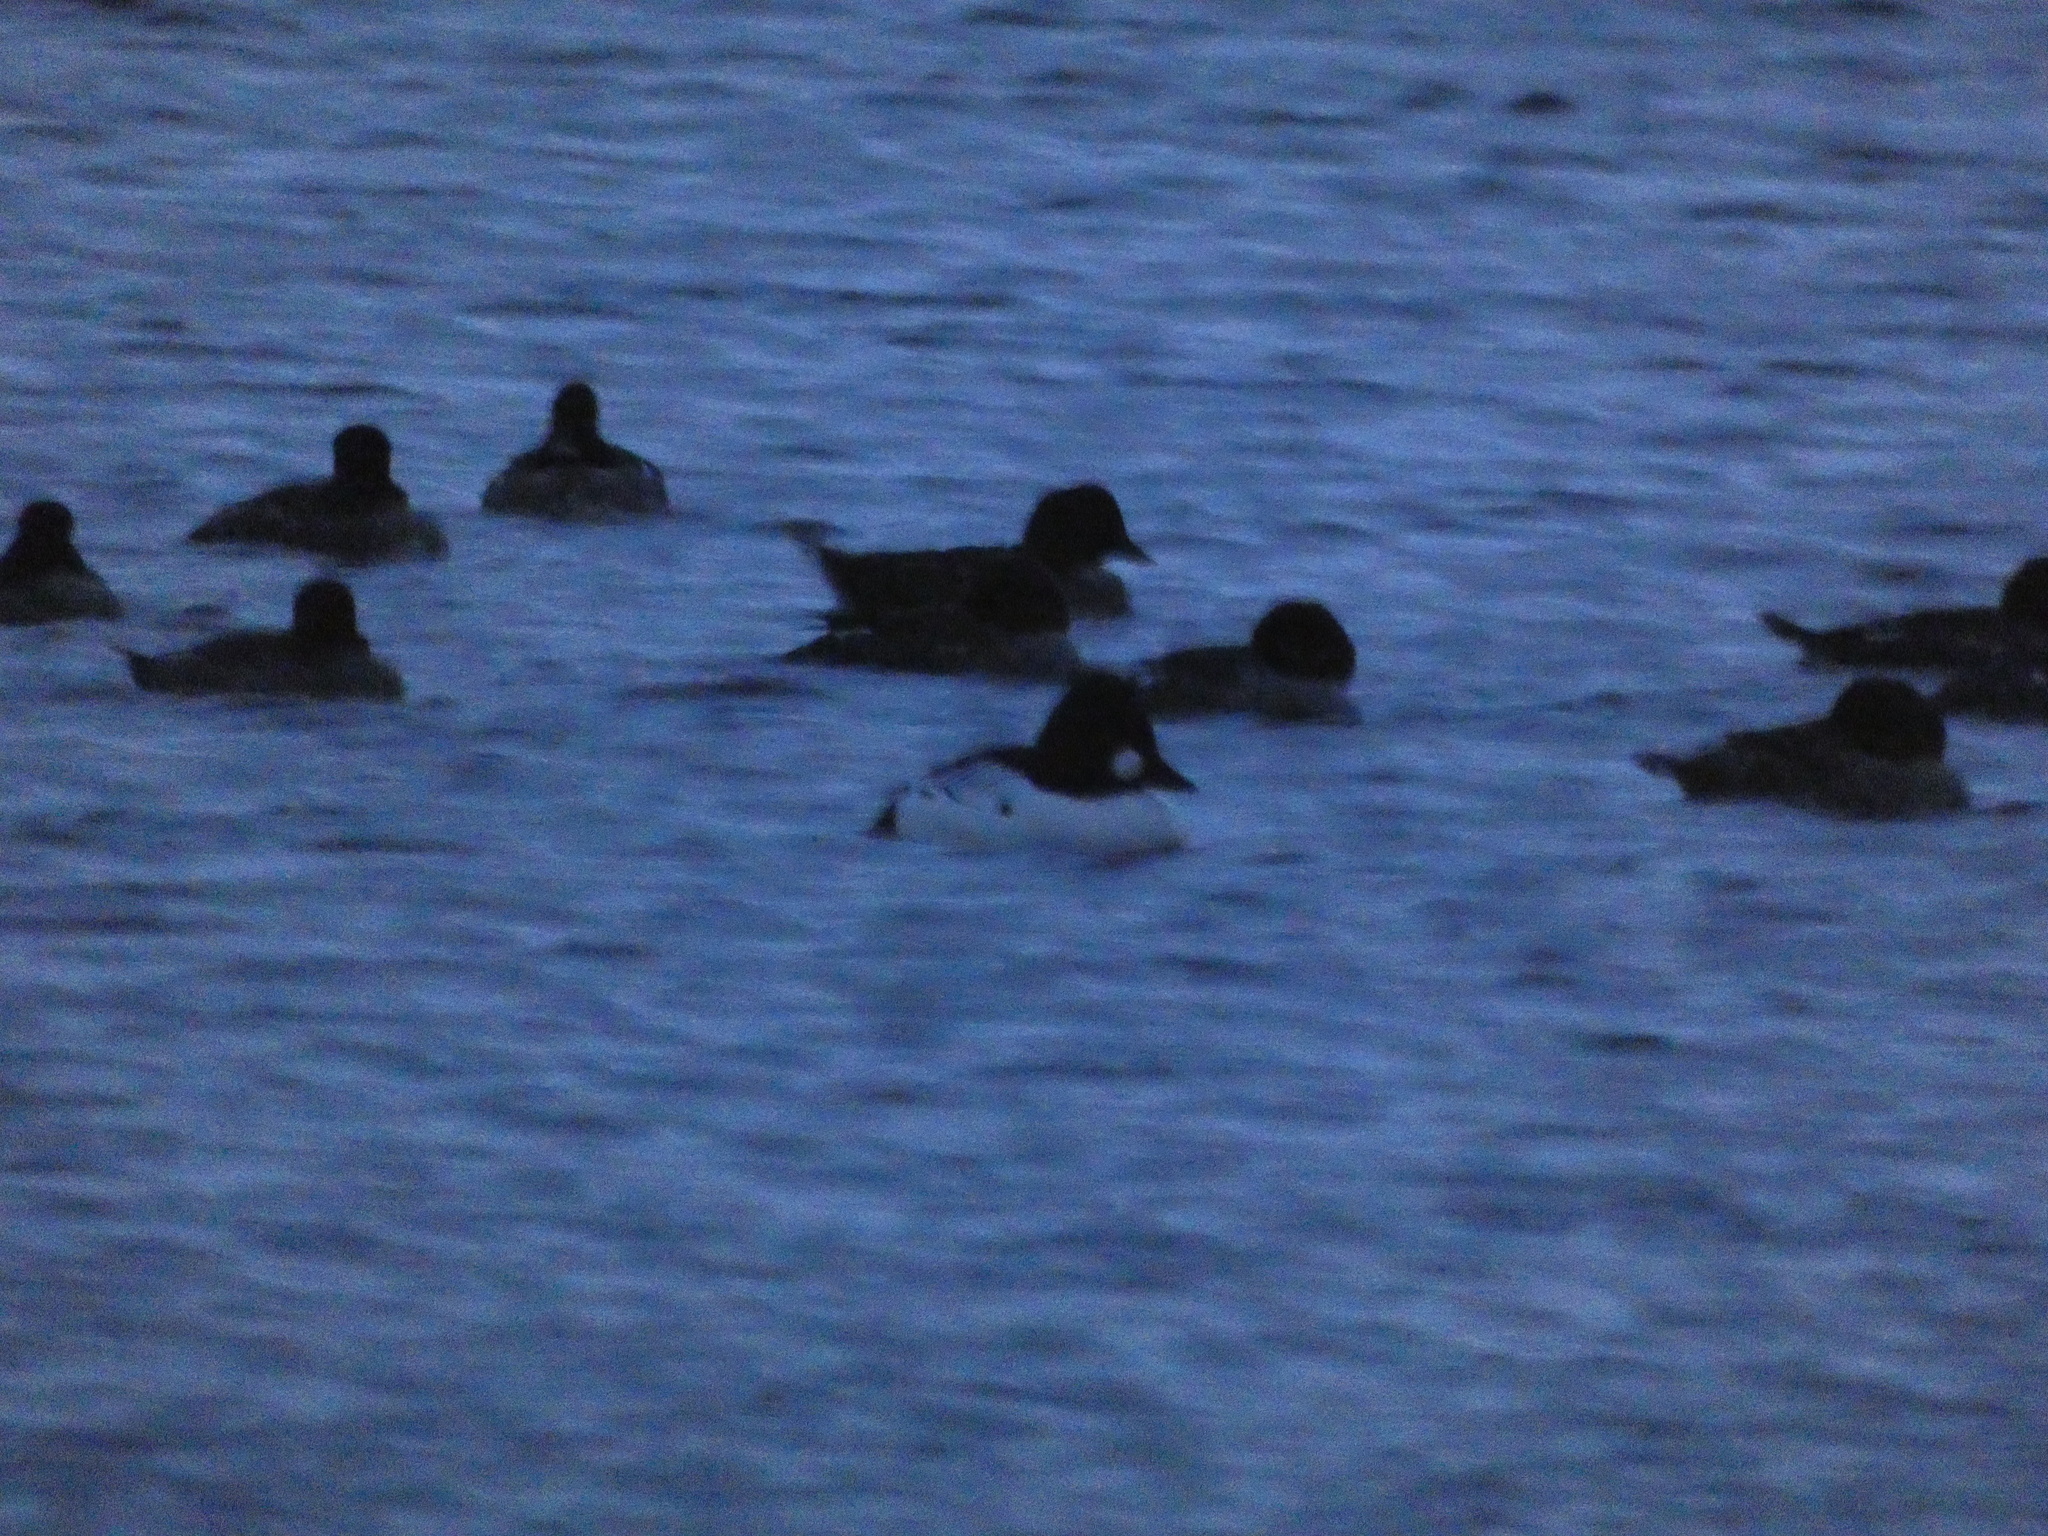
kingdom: Animalia
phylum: Chordata
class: Aves
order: Anseriformes
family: Anatidae
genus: Bucephala
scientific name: Bucephala clangula
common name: Common goldeneye
